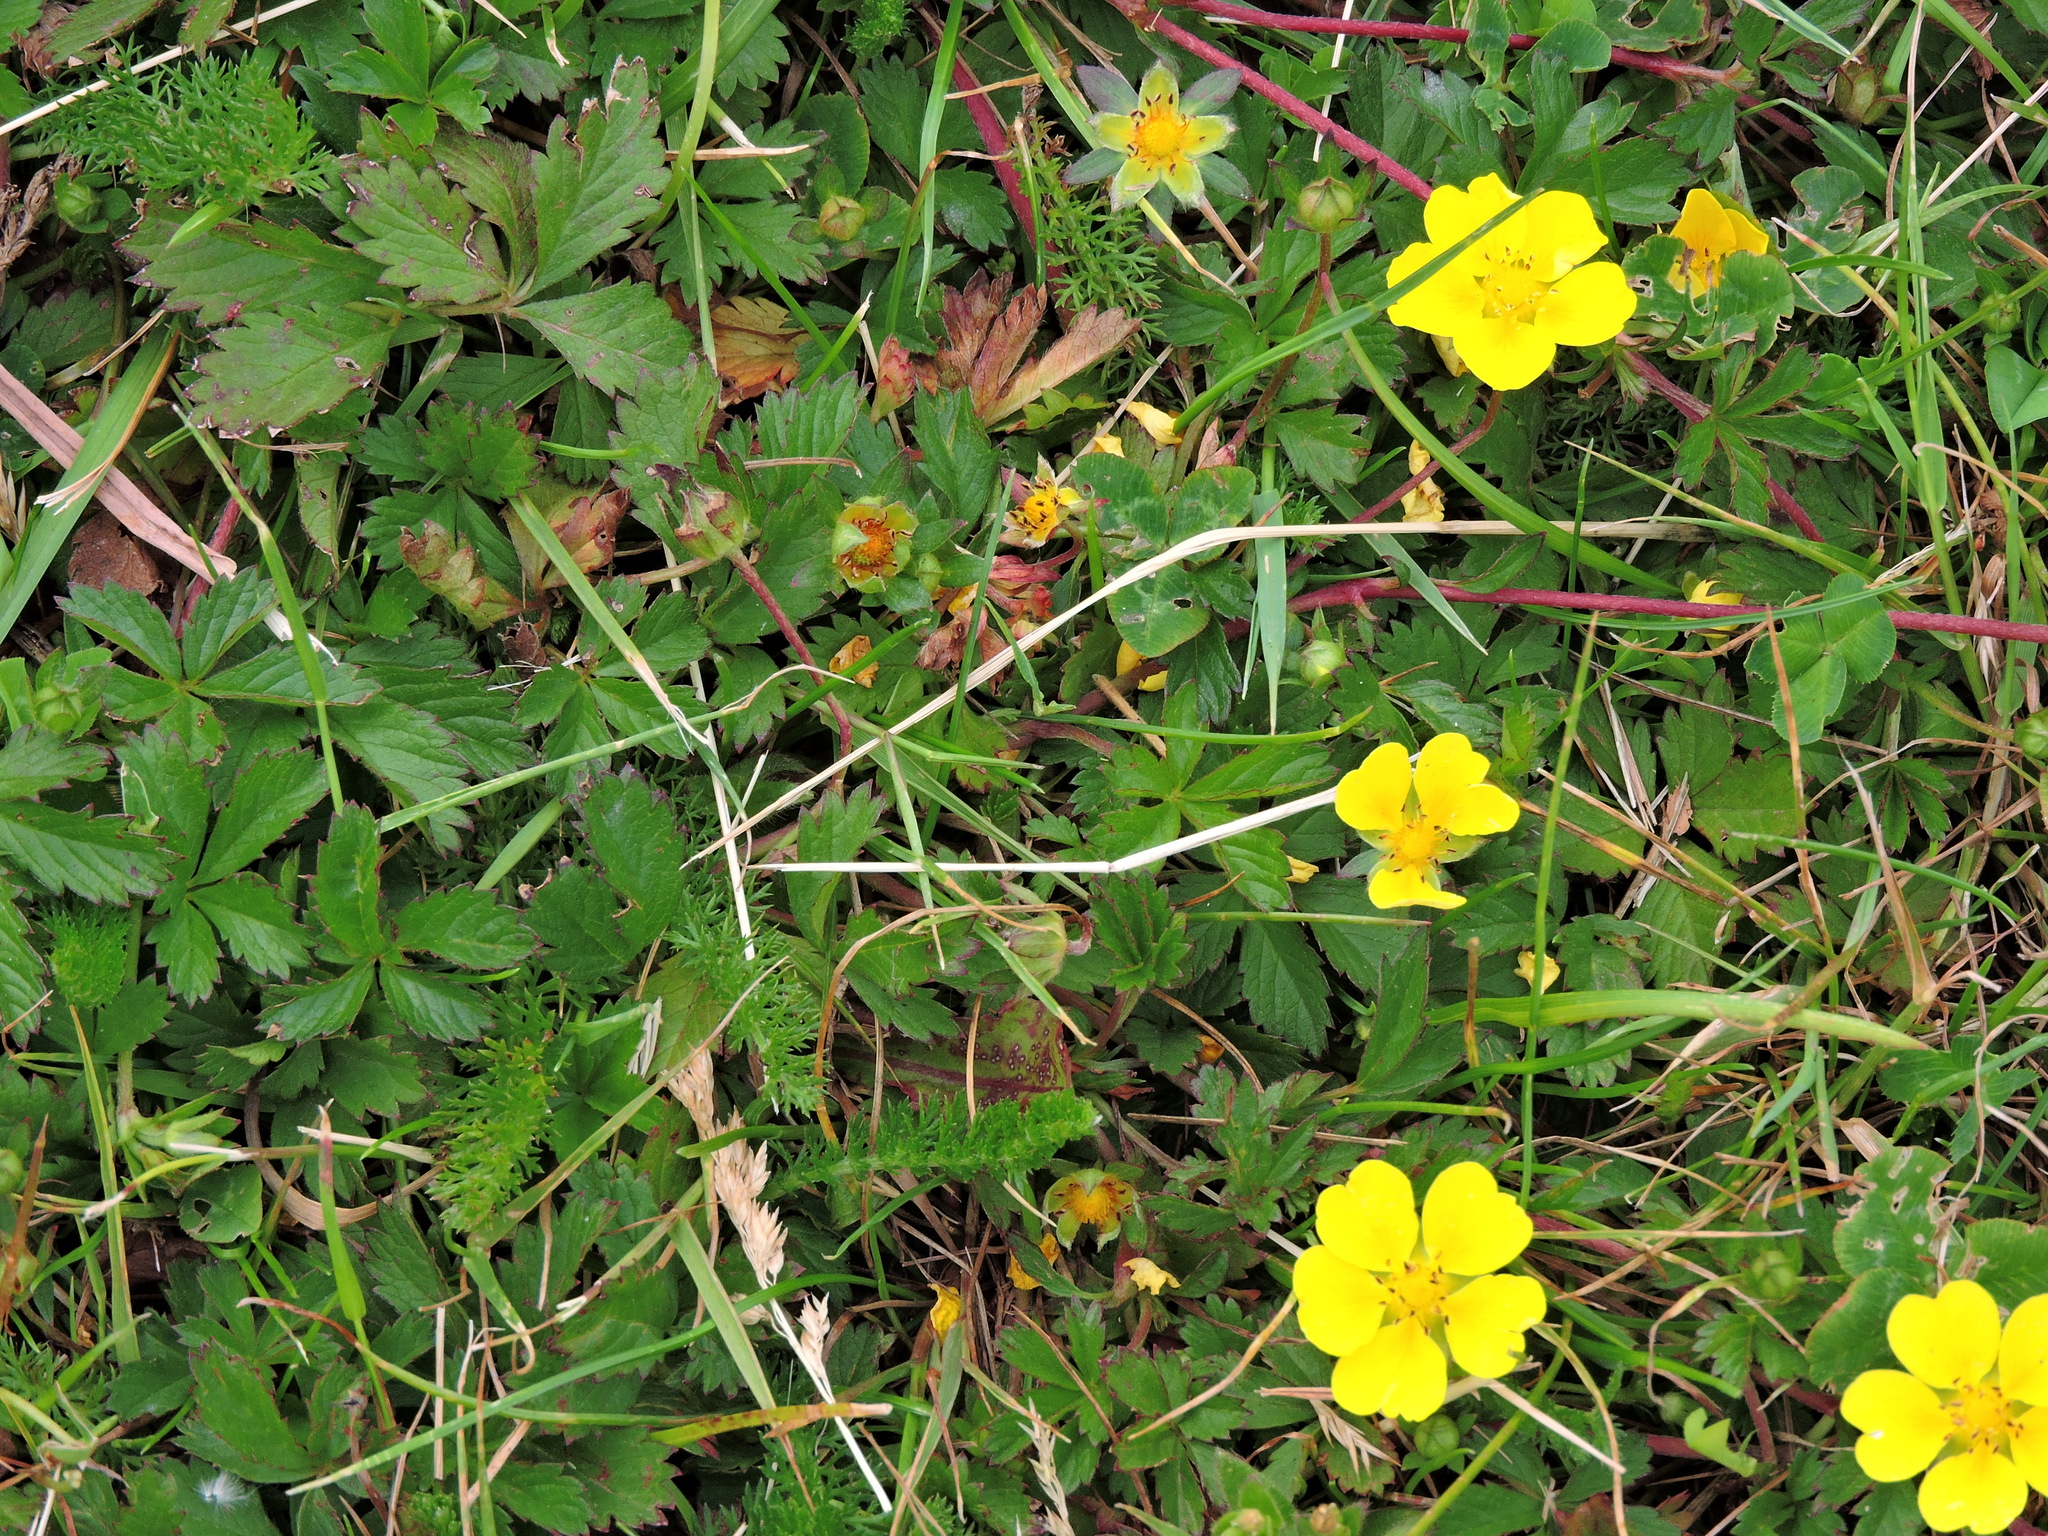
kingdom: Plantae
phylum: Tracheophyta
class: Magnoliopsida
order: Rosales
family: Rosaceae
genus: Potentilla
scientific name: Potentilla reptans
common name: Creeping cinquefoil
